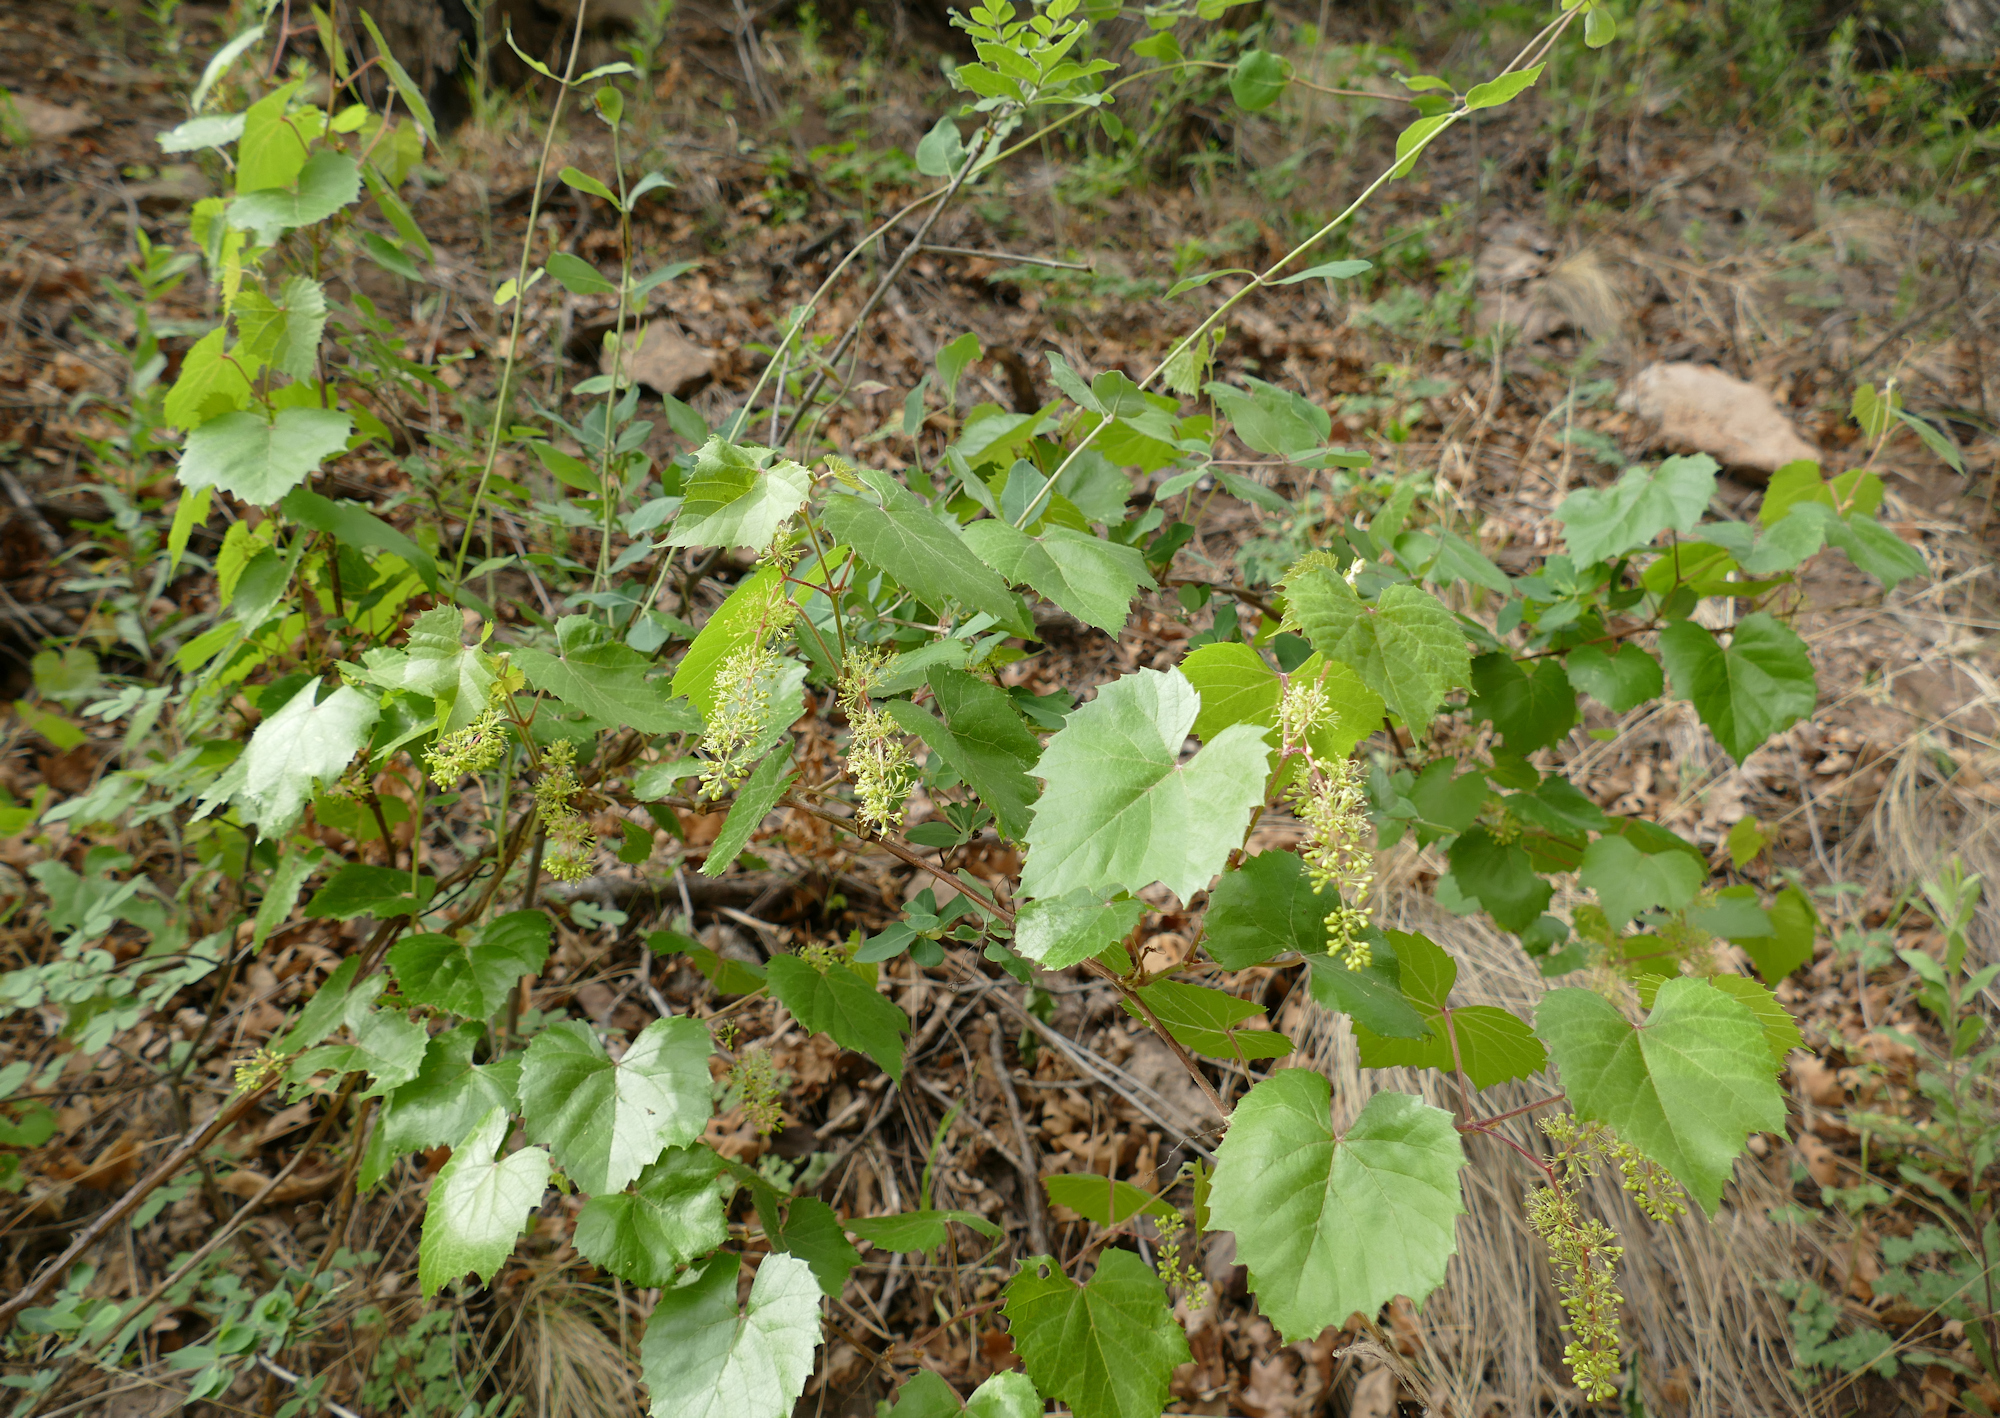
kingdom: Plantae
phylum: Tracheophyta
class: Magnoliopsida
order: Vitales
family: Vitaceae
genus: Vitis
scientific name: Vitis arizonica
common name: Canyon grape
